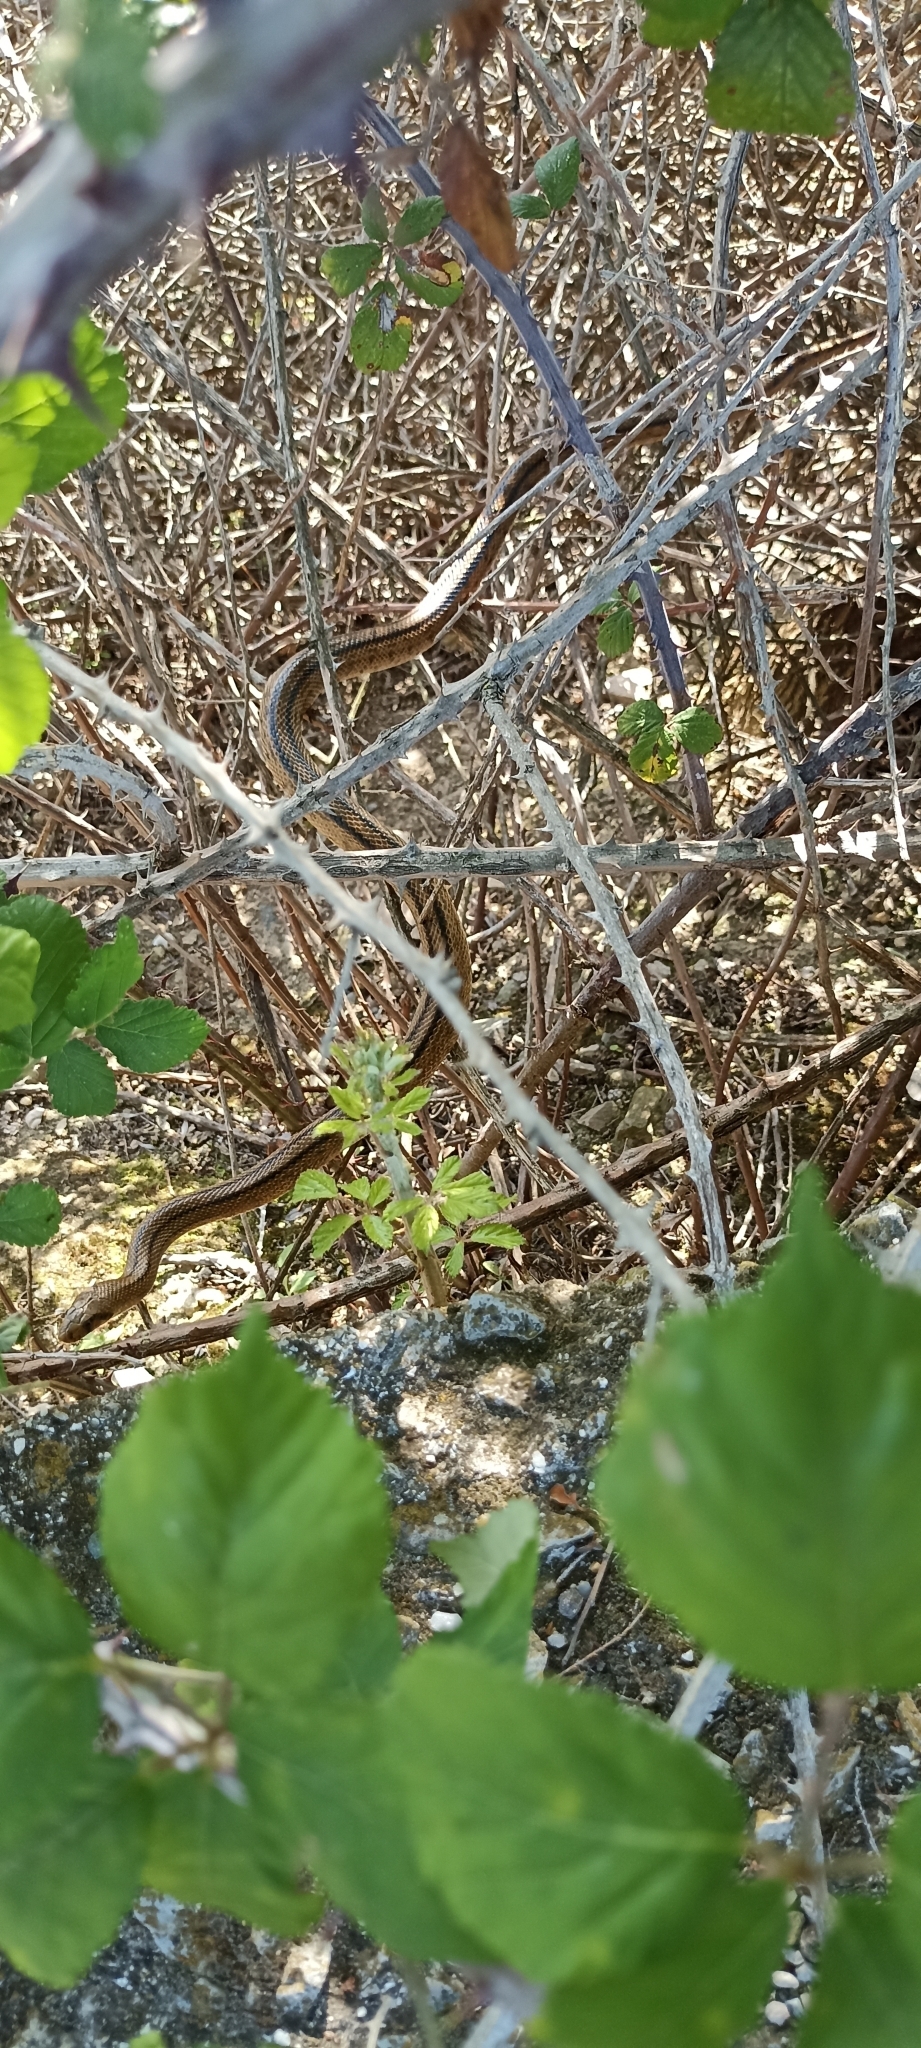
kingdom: Animalia
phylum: Chordata
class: Squamata
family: Colubridae
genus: Zamenis
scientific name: Zamenis scalaris
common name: Ladder snakes
